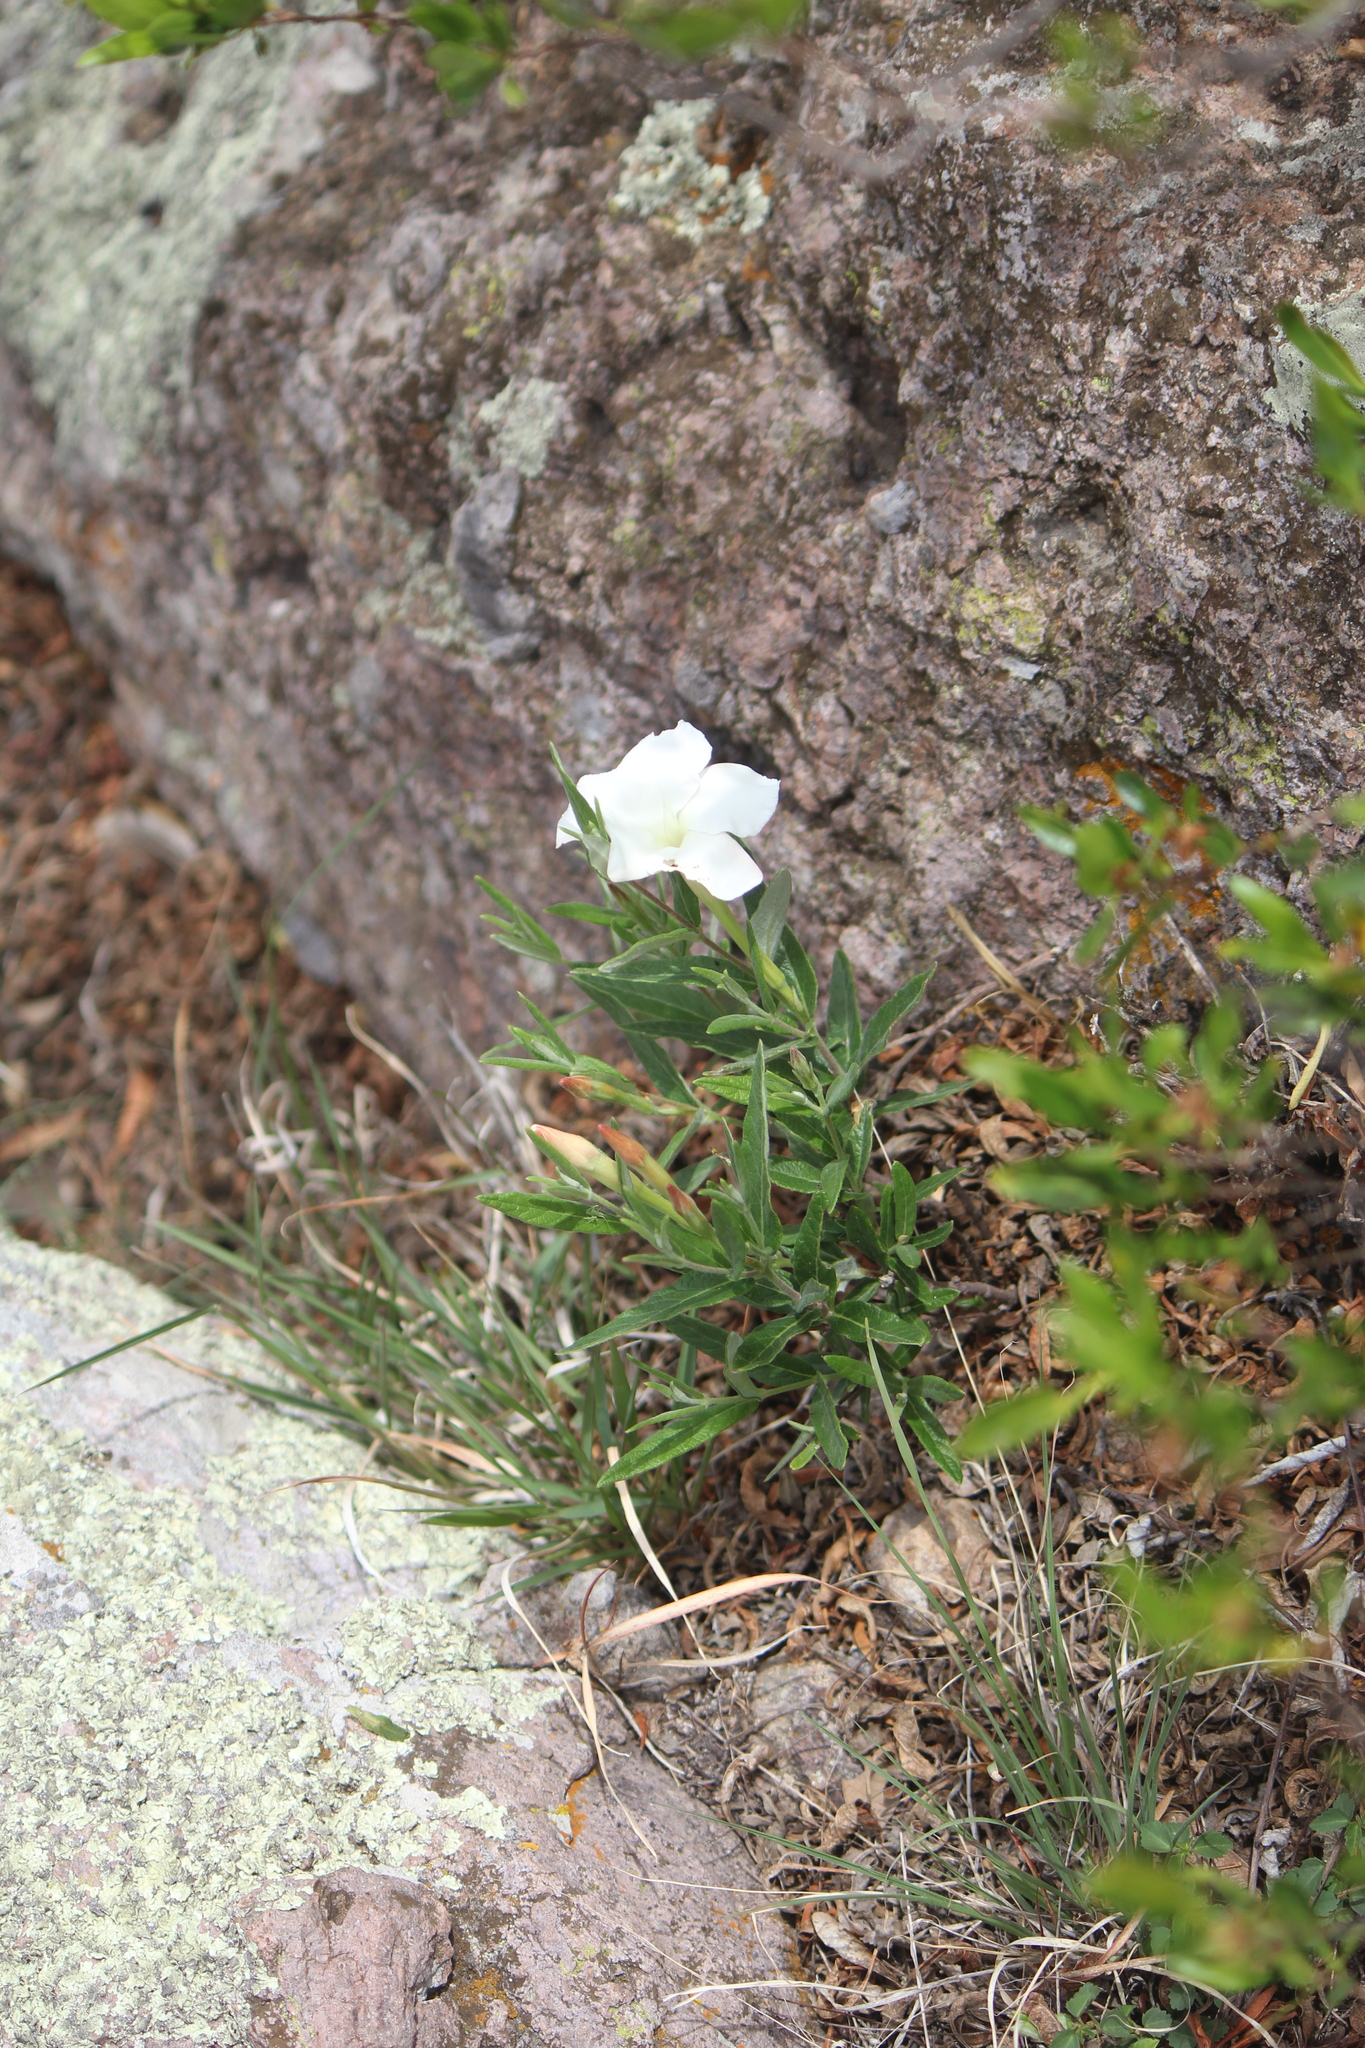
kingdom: Plantae
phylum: Tracheophyta
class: Magnoliopsida
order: Gentianales
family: Apocynaceae
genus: Mandevilla
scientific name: Mandevilla oaxacensis
